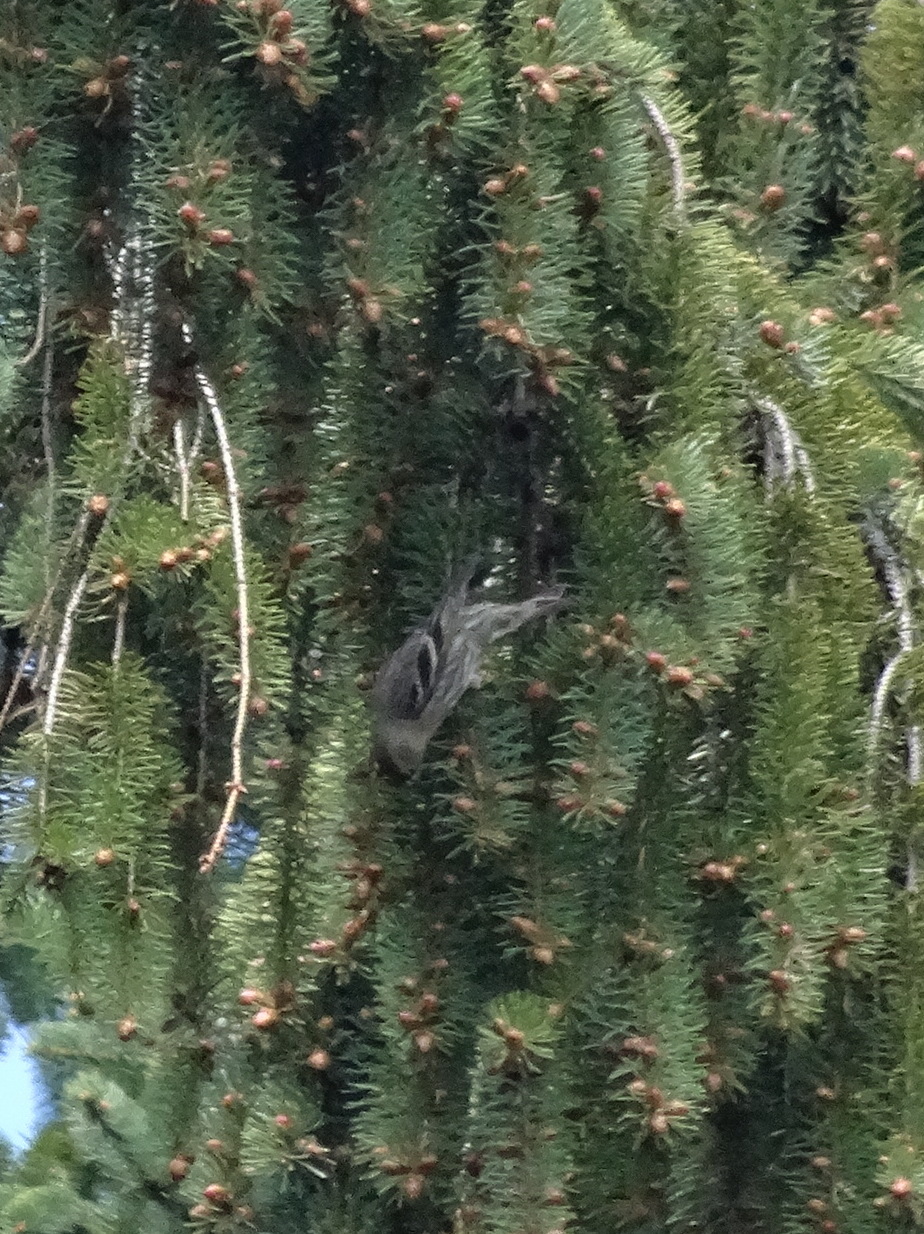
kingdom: Animalia
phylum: Chordata
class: Aves
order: Passeriformes
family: Fringillidae
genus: Spinus
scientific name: Spinus pinus
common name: Pine siskin
